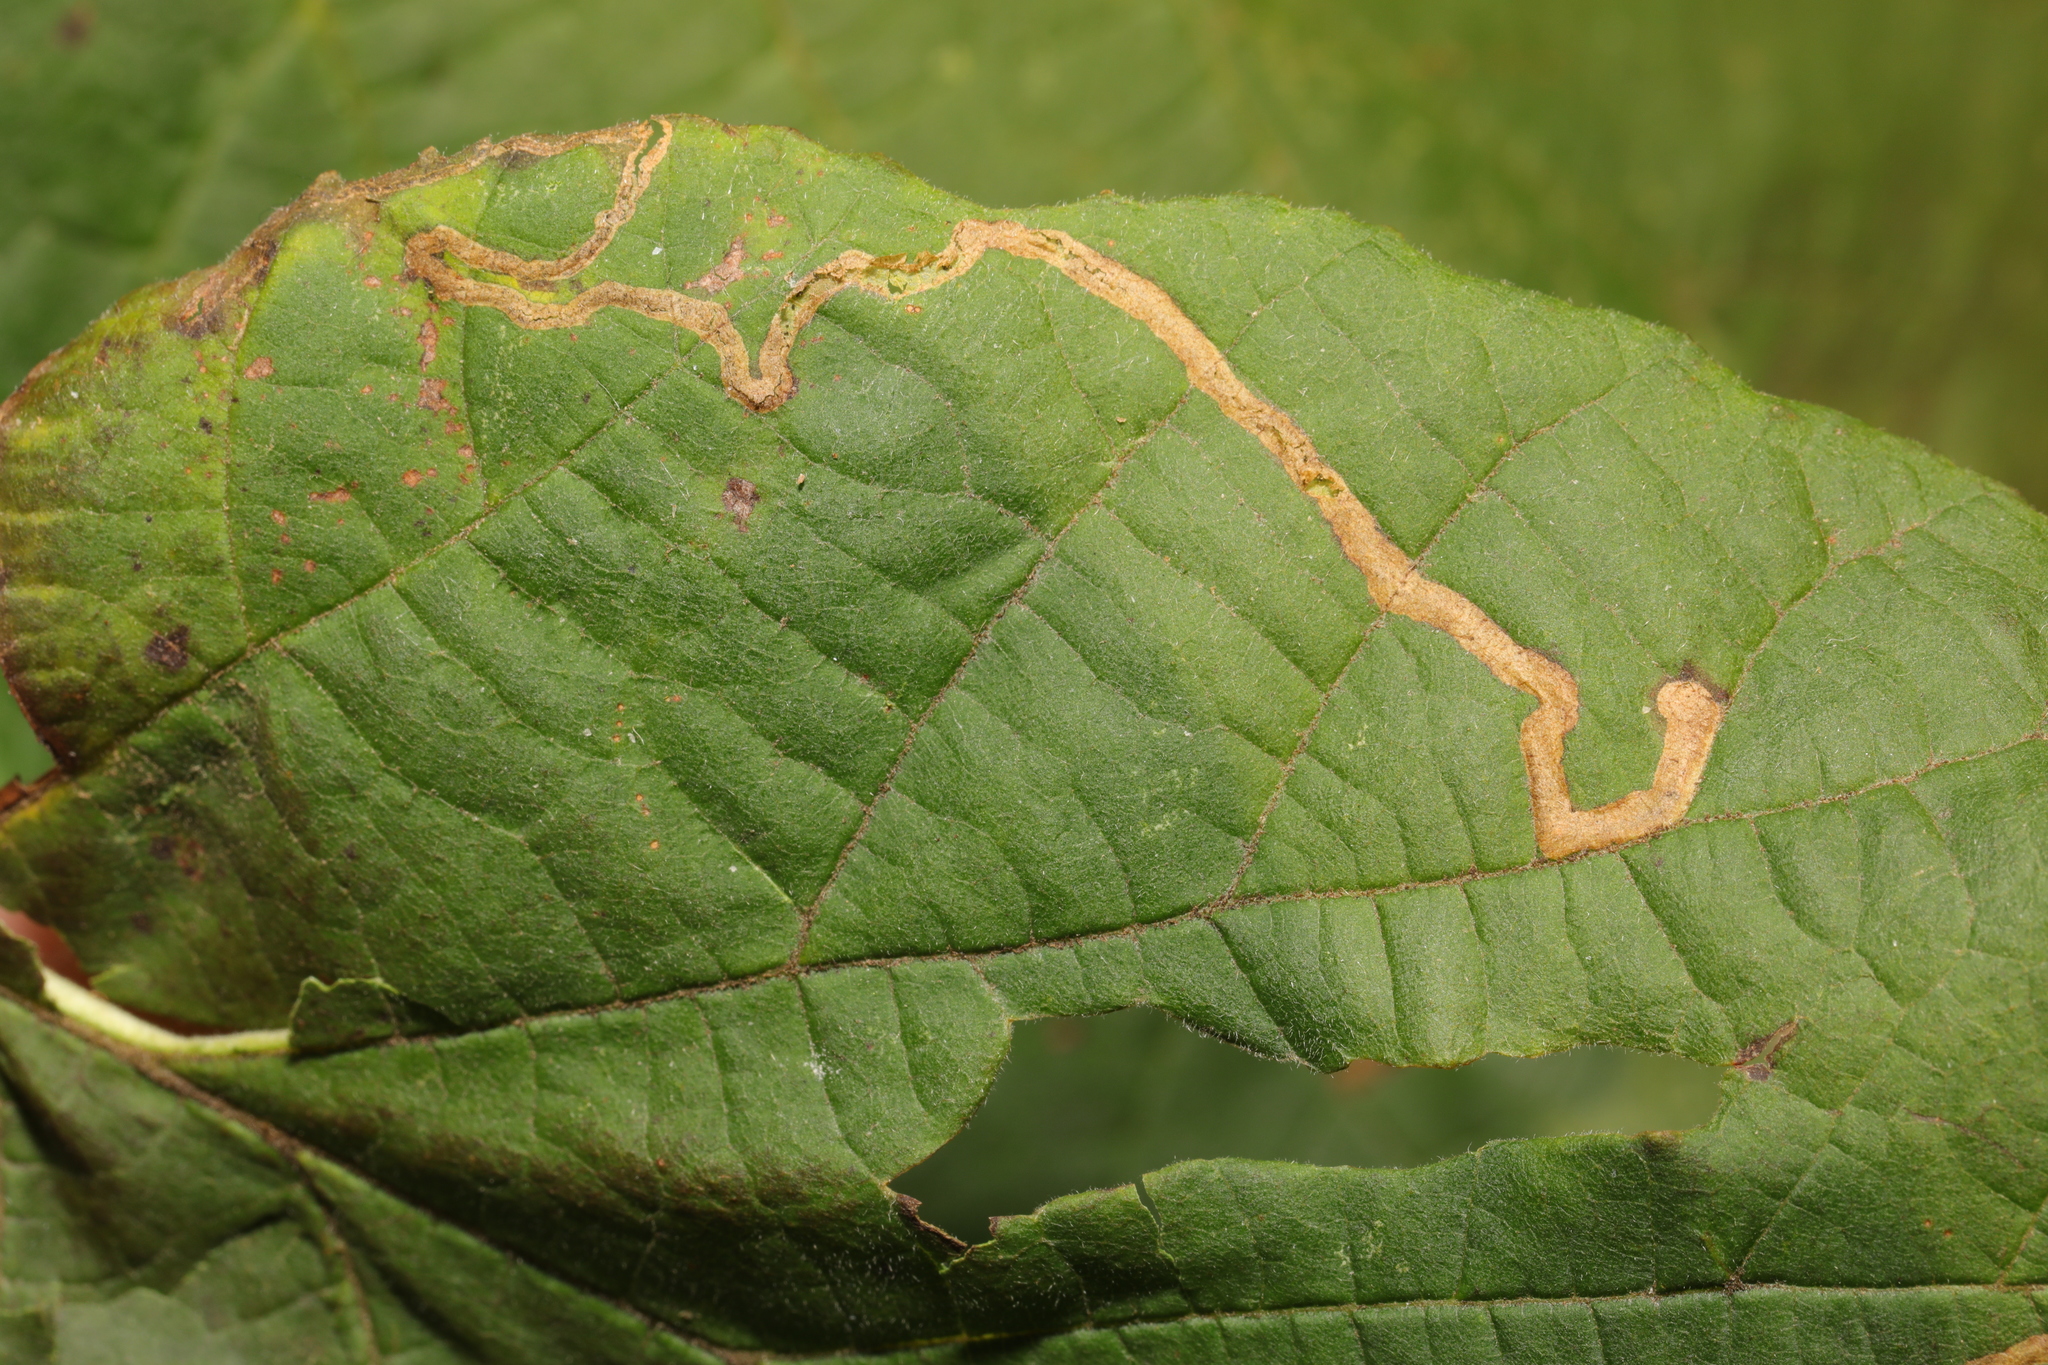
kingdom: Animalia
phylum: Arthropoda
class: Insecta
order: Lepidoptera
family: Nepticulidae
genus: Stigmella
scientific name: Stigmella microtheriella
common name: Nut-tree pigmy
